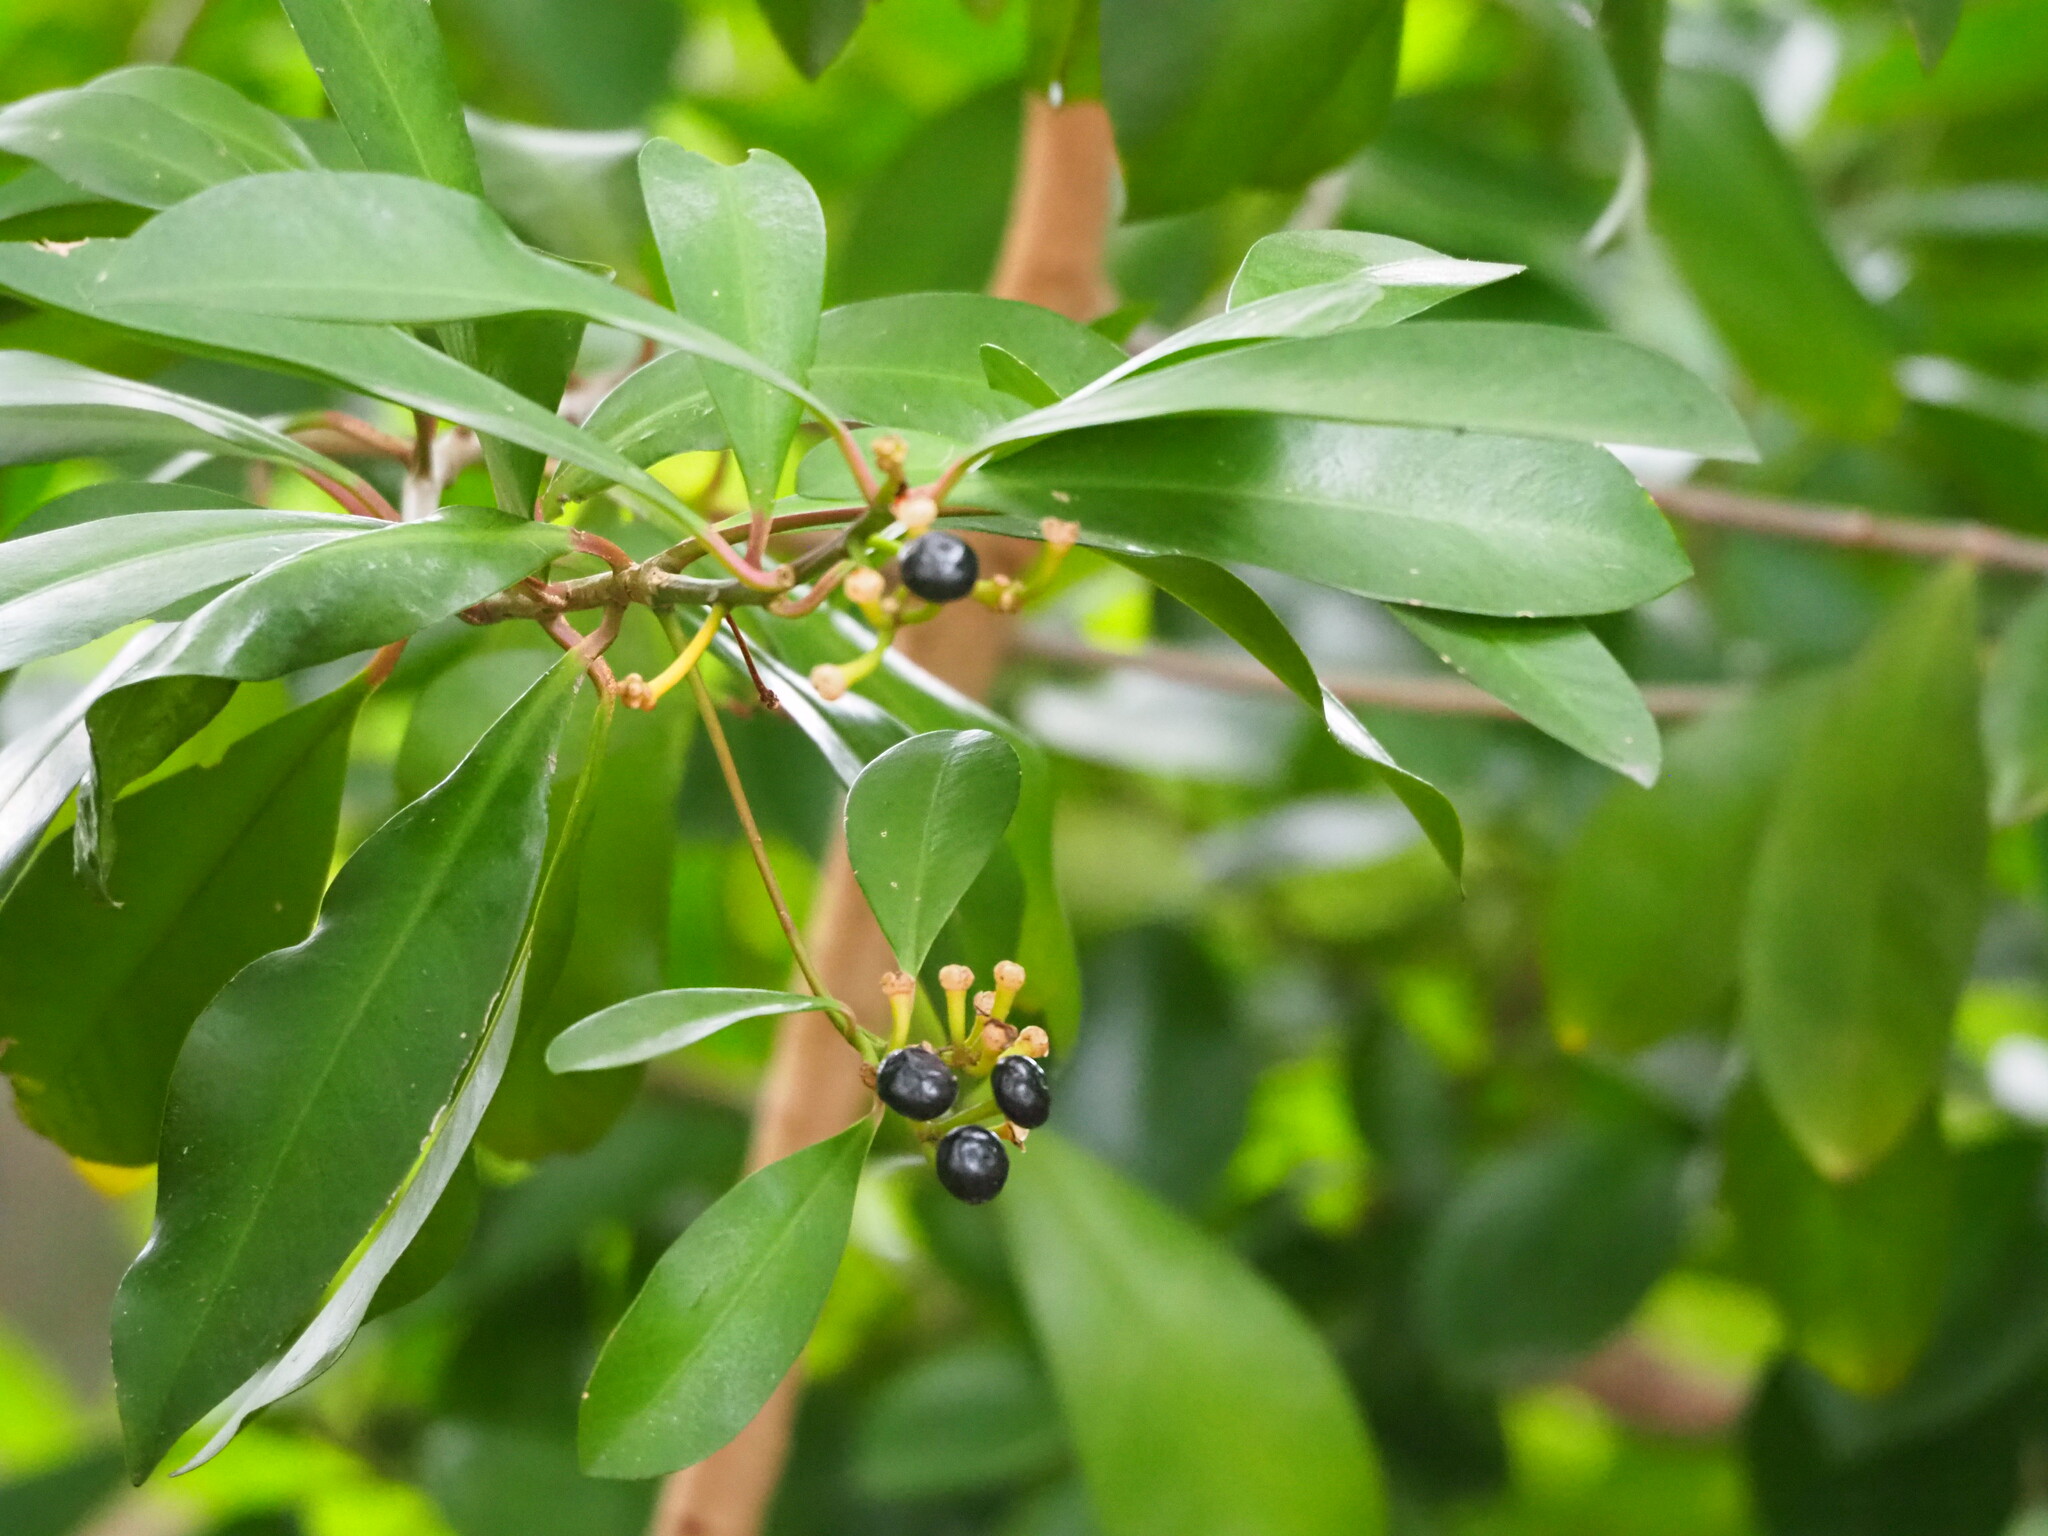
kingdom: Plantae
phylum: Tracheophyta
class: Magnoliopsida
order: Ericales
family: Primulaceae
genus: Ardisia
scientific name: Ardisia elliptica
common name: Shoebutton
